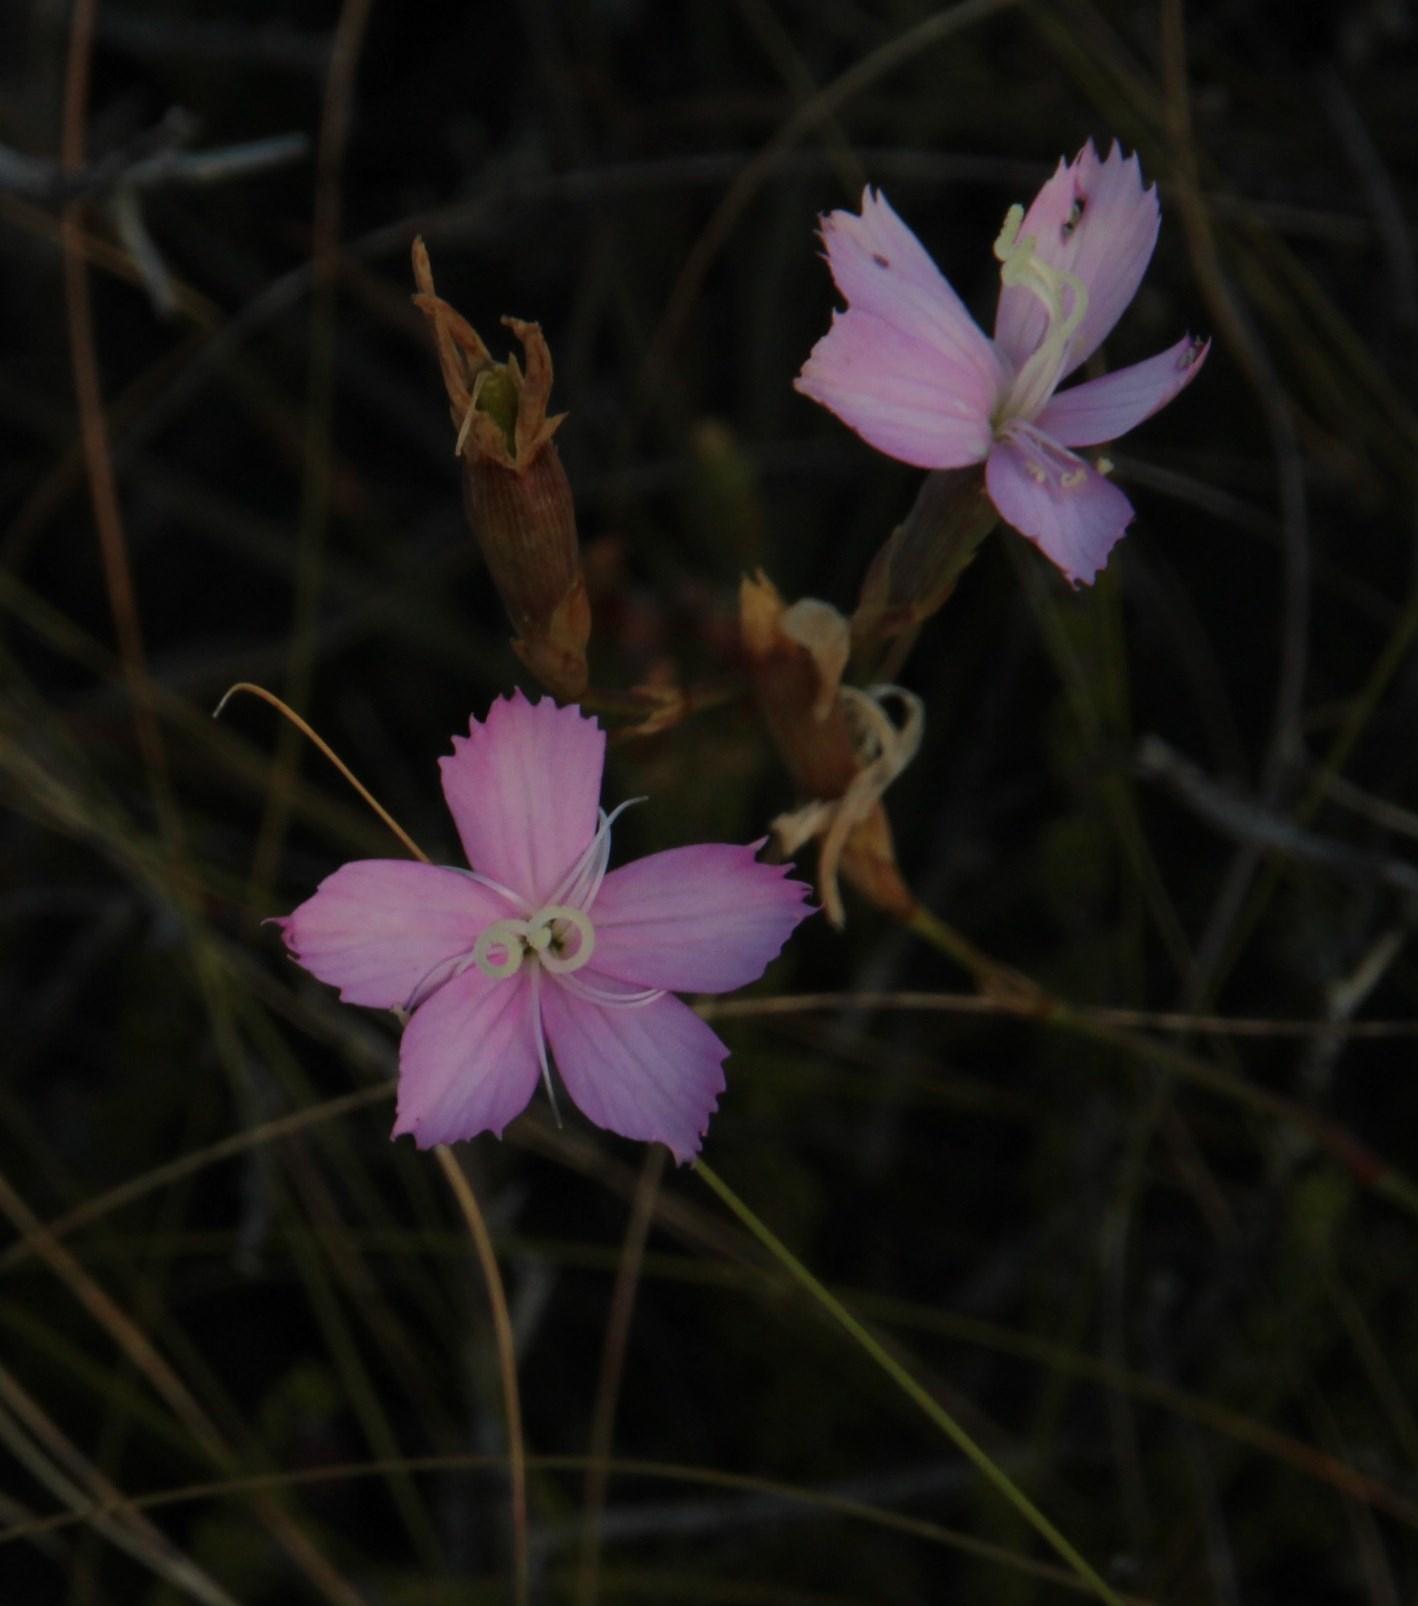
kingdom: Plantae
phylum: Tracheophyta
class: Magnoliopsida
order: Caryophyllales
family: Caryophyllaceae
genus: Dianthus
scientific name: Dianthus thunbergii
